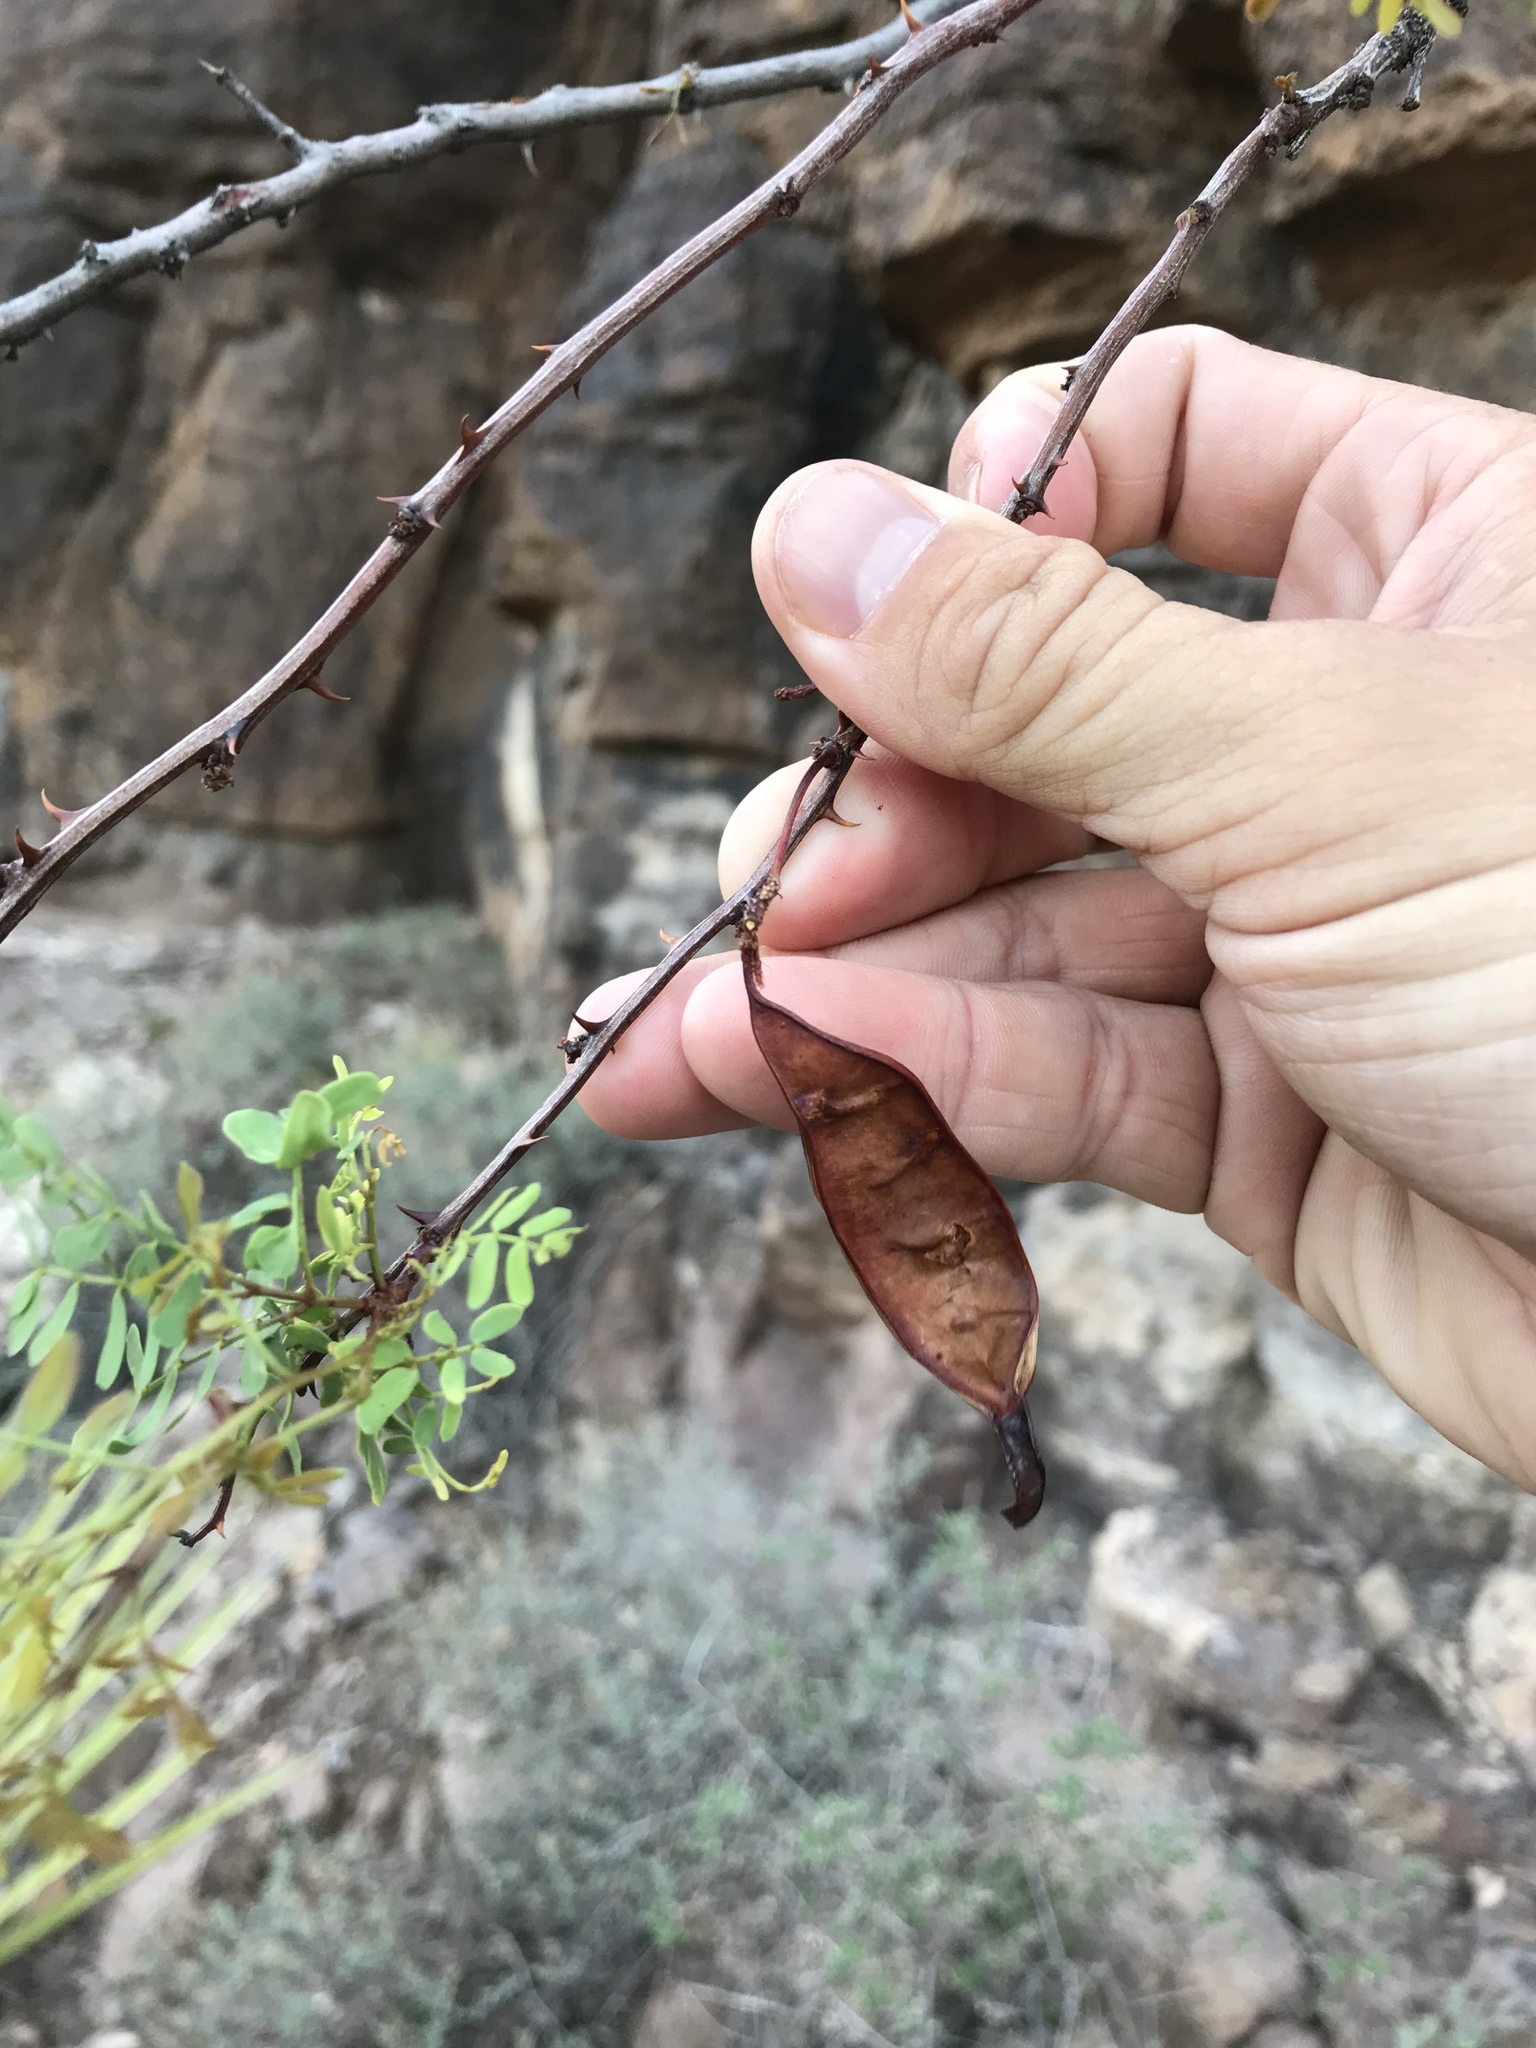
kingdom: Plantae
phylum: Tracheophyta
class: Magnoliopsida
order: Fabales
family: Fabaceae
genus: Senegalia
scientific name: Senegalia roemeriana
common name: Roemer's acacia
